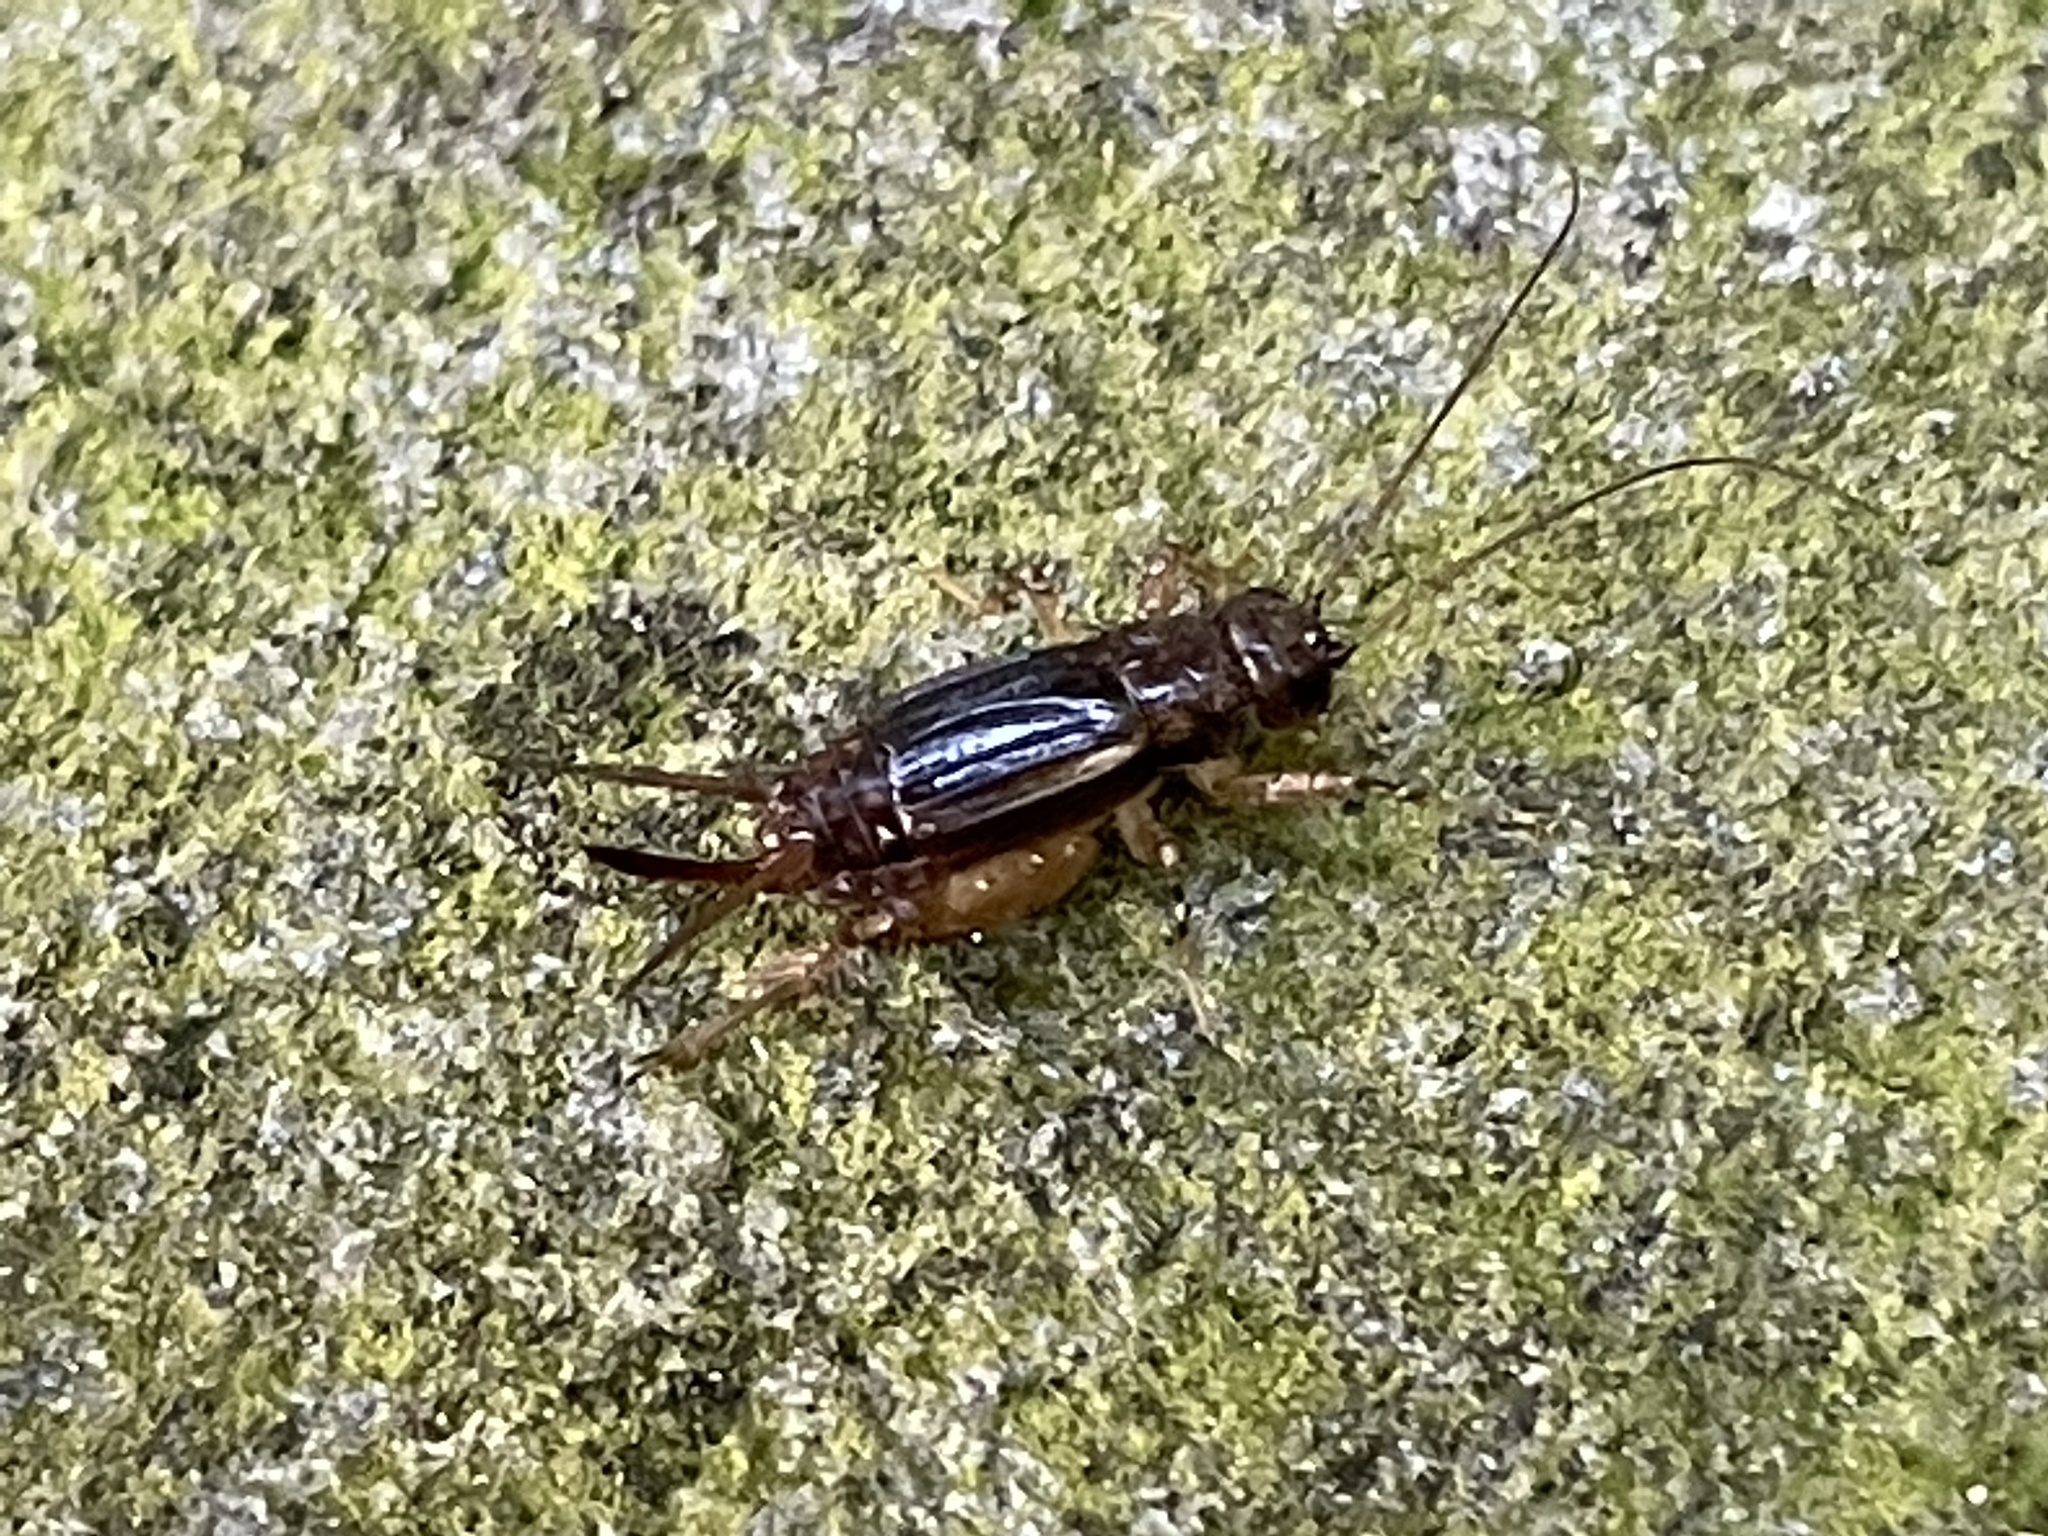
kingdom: Animalia
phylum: Arthropoda
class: Insecta
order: Orthoptera
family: Trigonidiidae
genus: Eunemobius
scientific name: Eunemobius carolinus
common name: Carolina ground cricket
